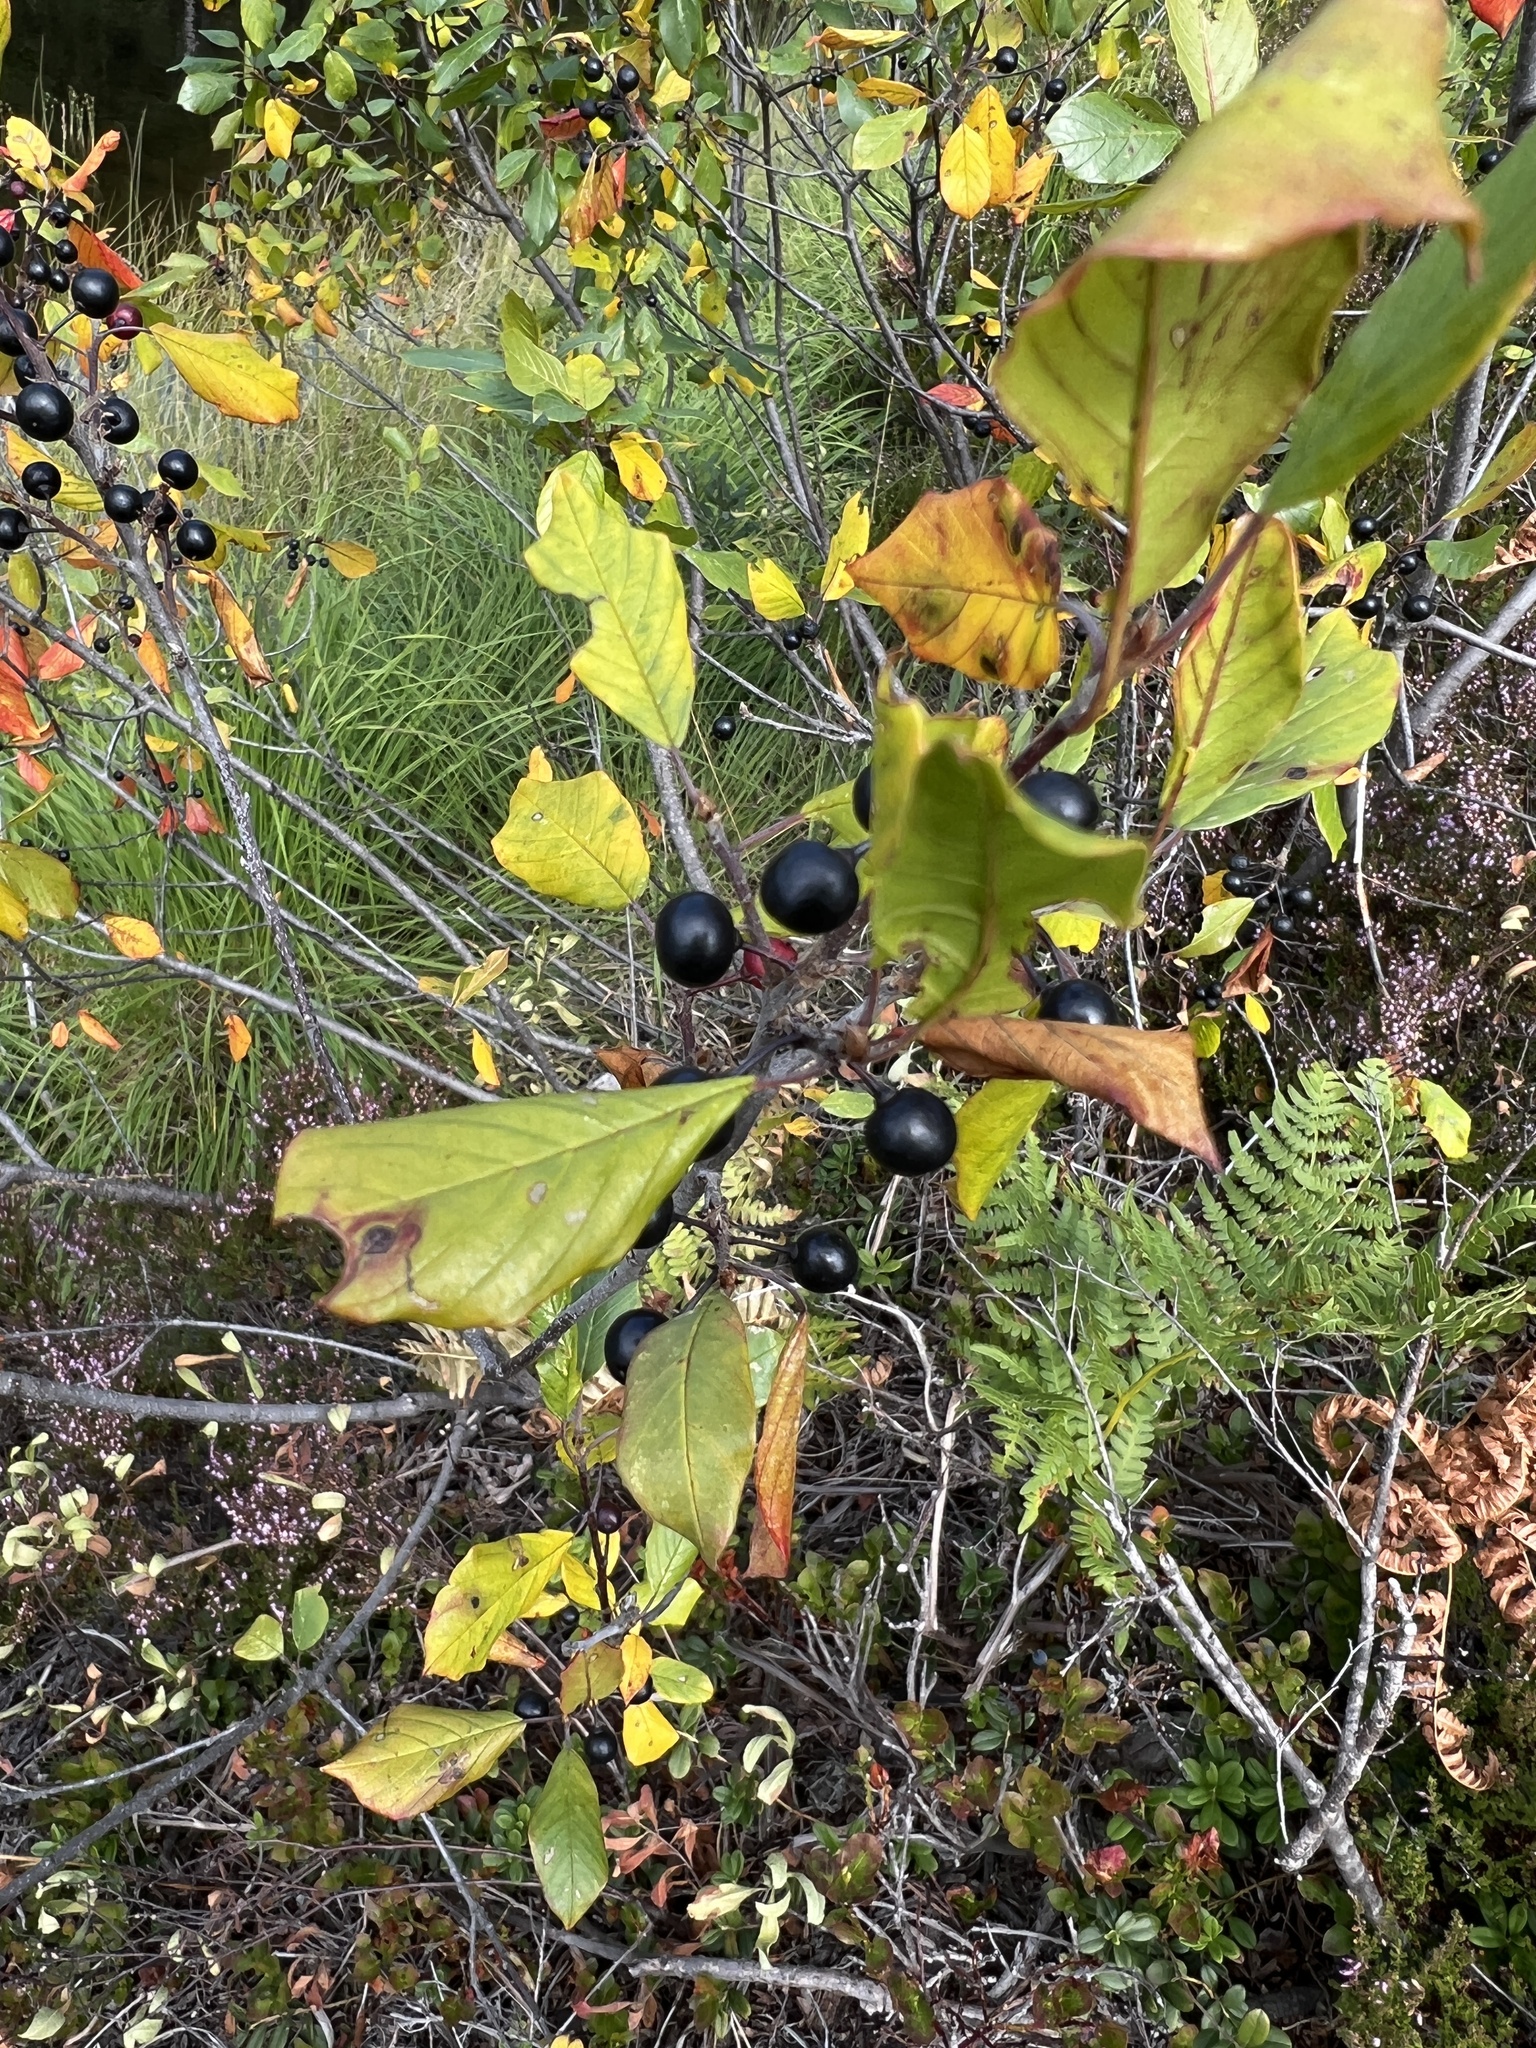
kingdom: Plantae
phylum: Tracheophyta
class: Magnoliopsida
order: Rosales
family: Rhamnaceae
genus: Frangula
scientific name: Frangula alnus
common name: Alder buckthorn
